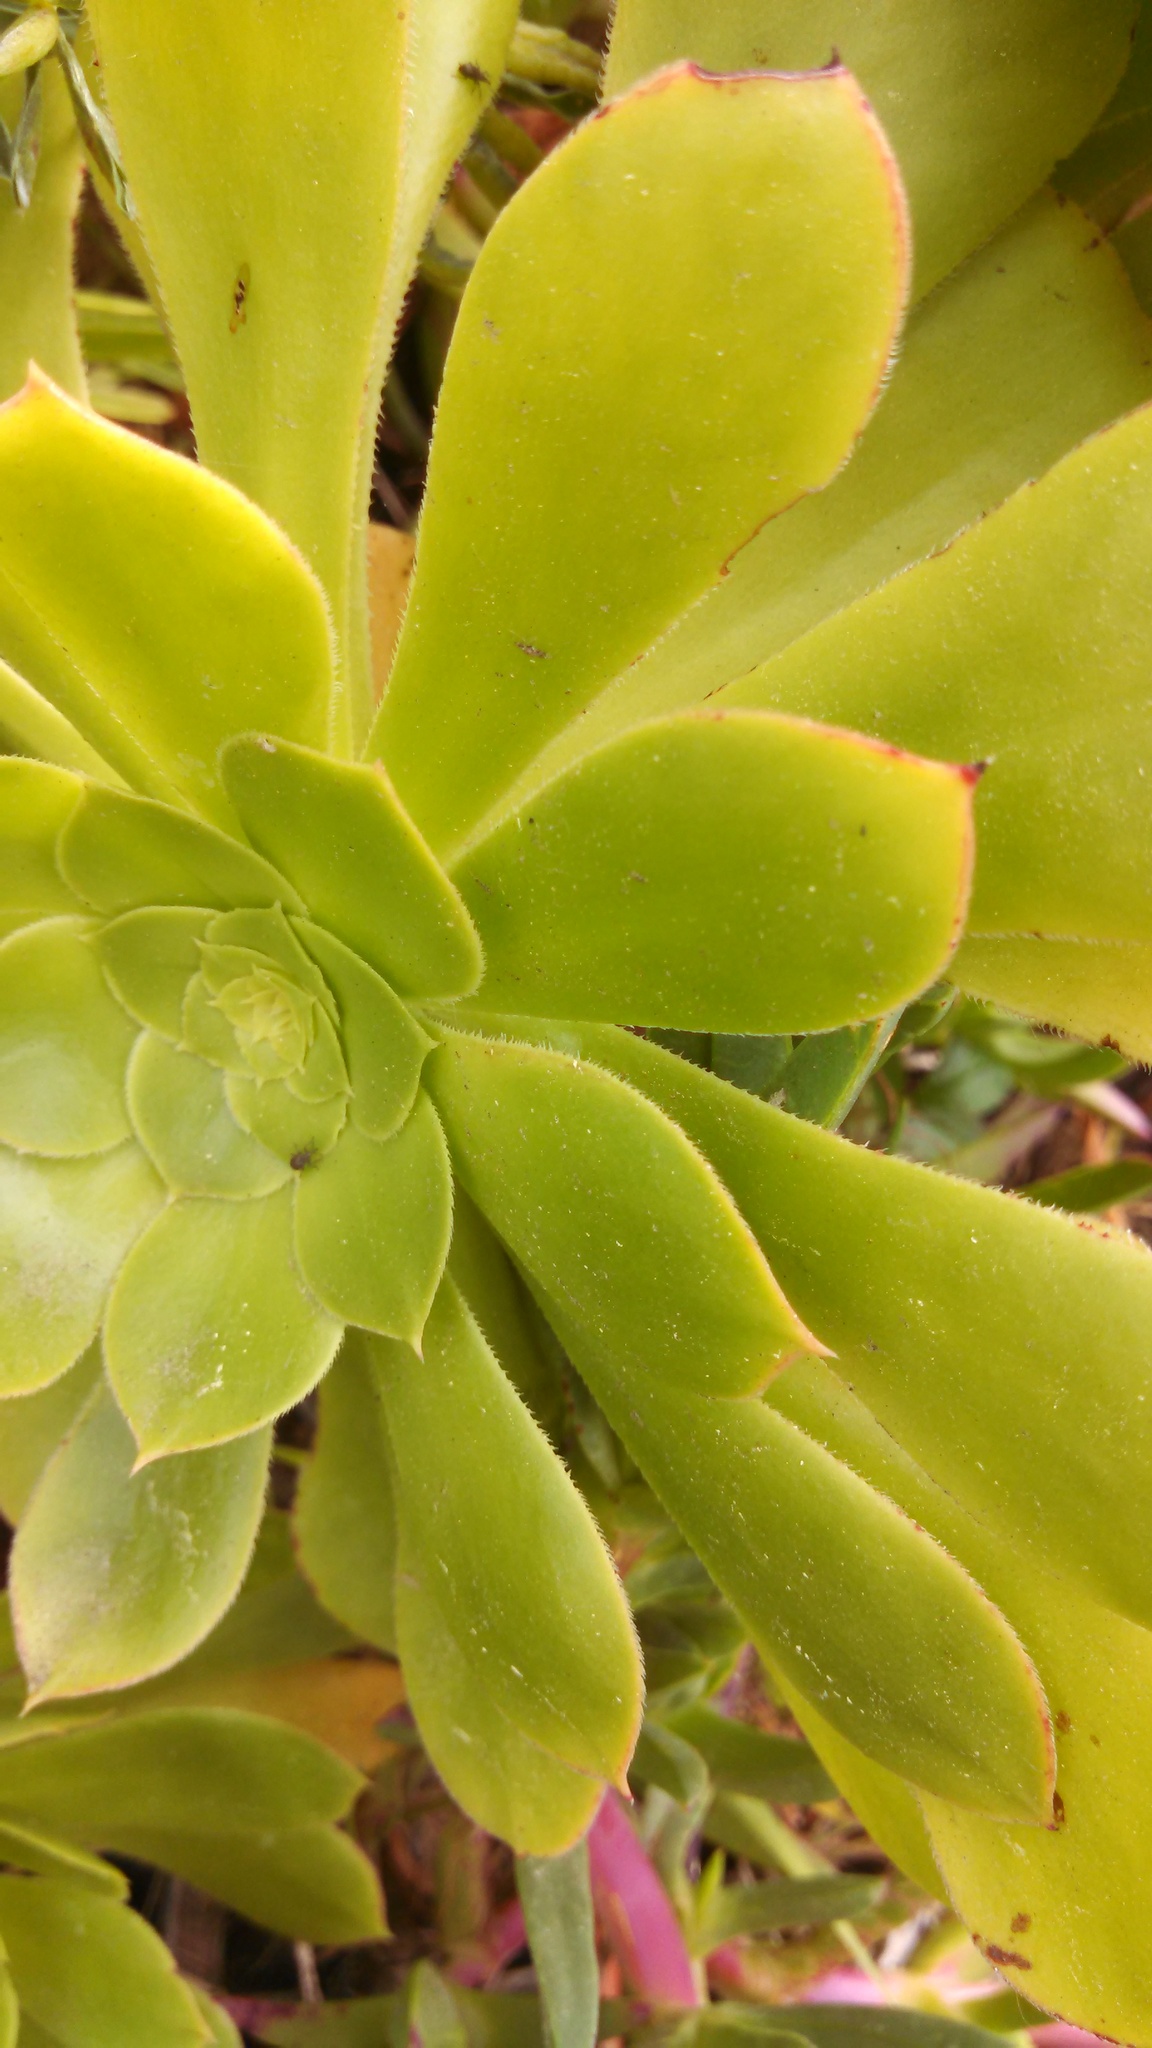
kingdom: Plantae
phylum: Tracheophyta
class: Magnoliopsida
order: Saxifragales
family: Crassulaceae
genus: Aeonium
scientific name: Aeonium arboreum
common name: Tree aeonium
